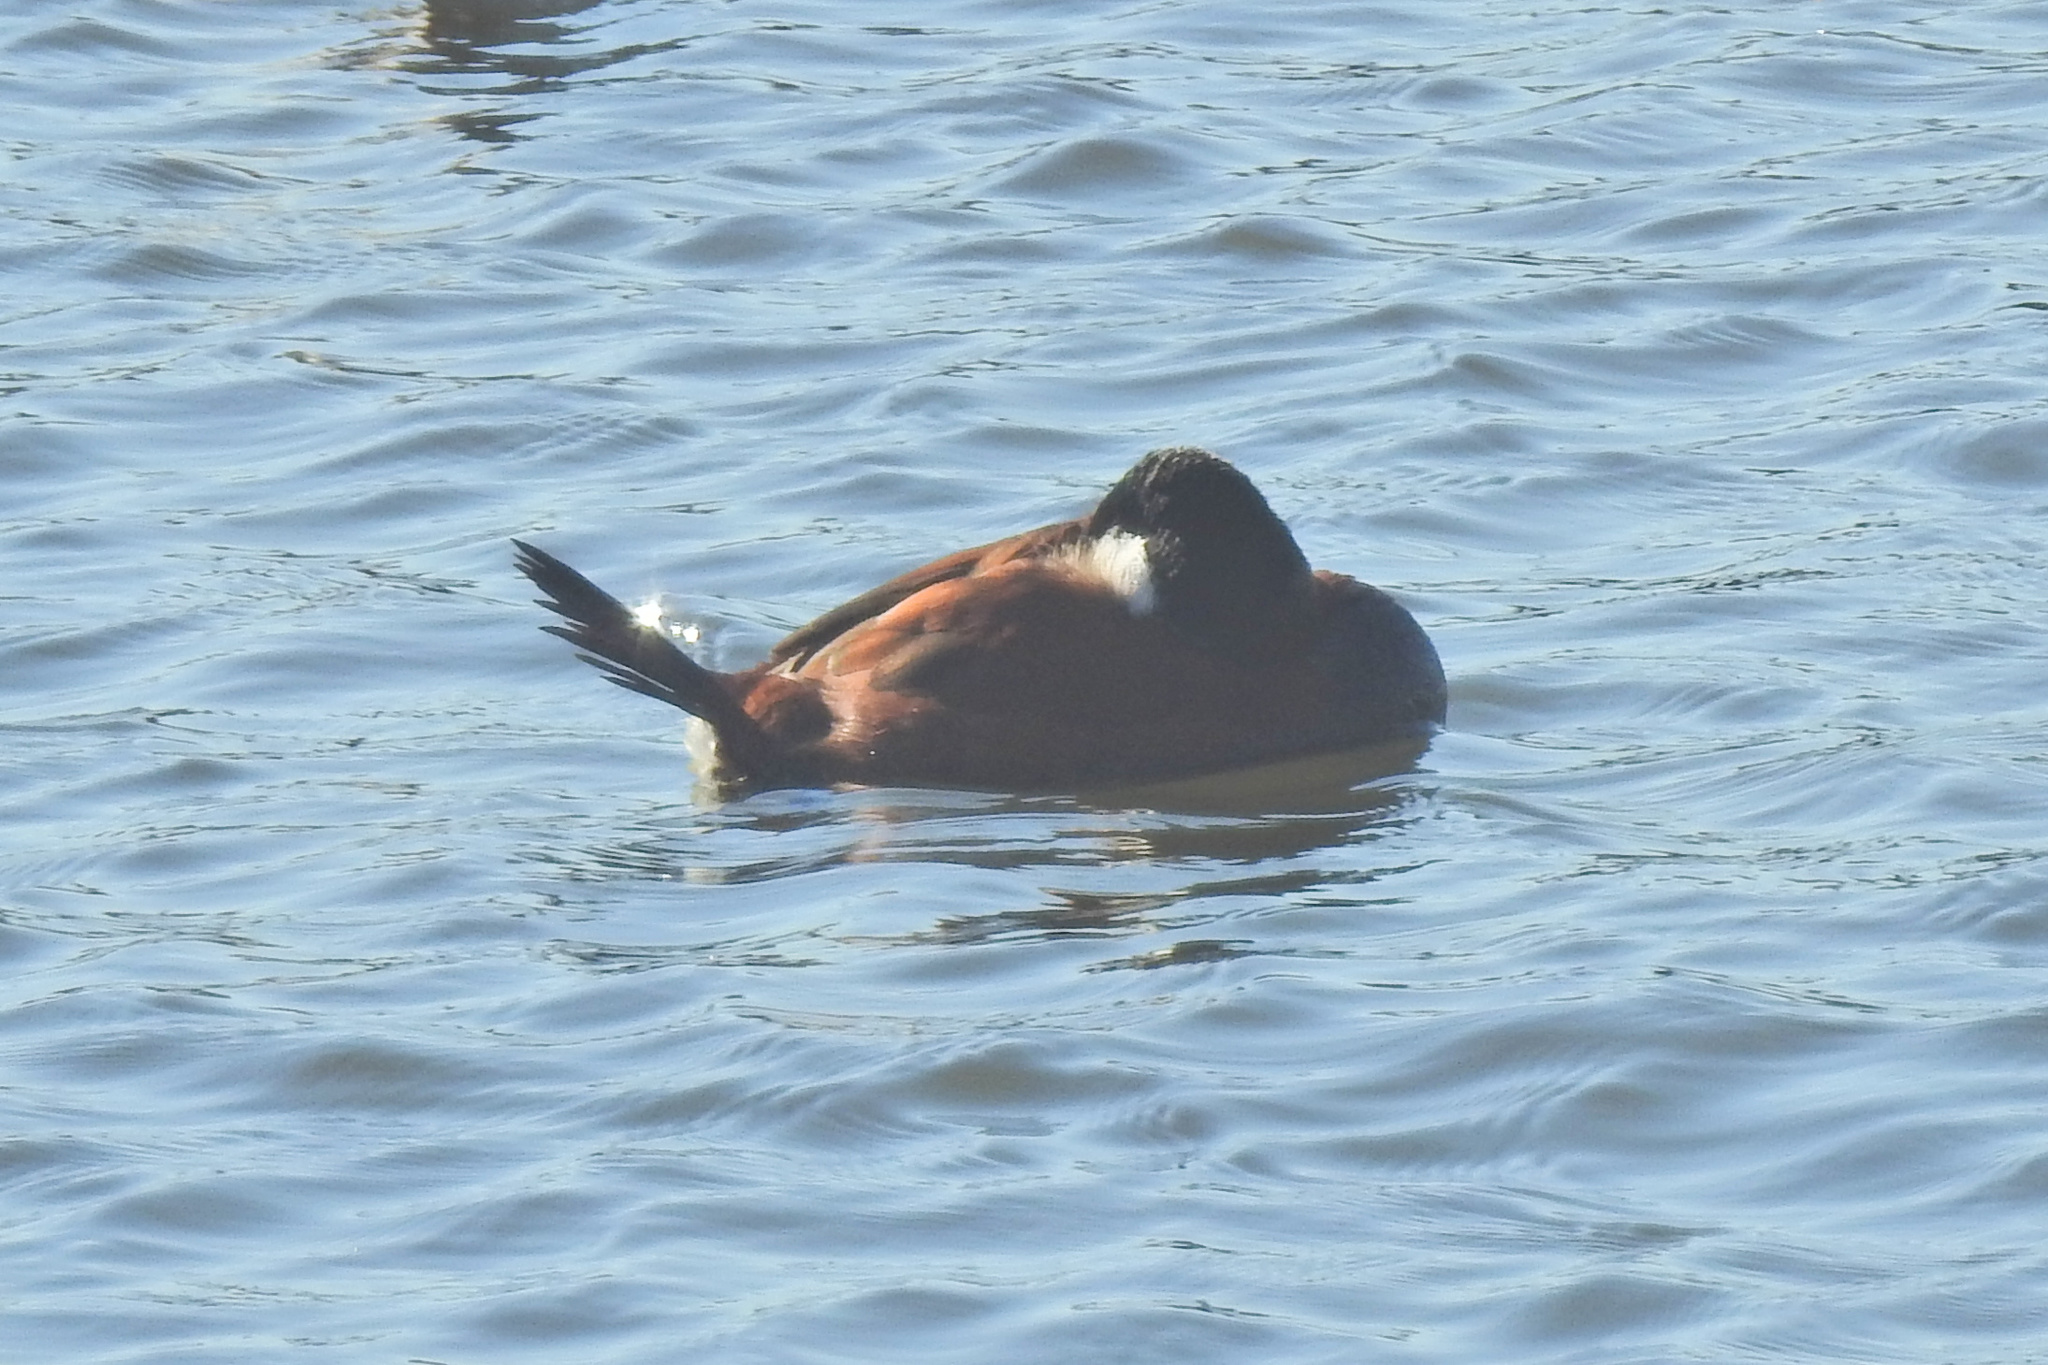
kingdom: Animalia
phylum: Chordata
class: Aves
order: Anseriformes
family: Anatidae
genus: Oxyura
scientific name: Oxyura jamaicensis
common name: Ruddy duck
